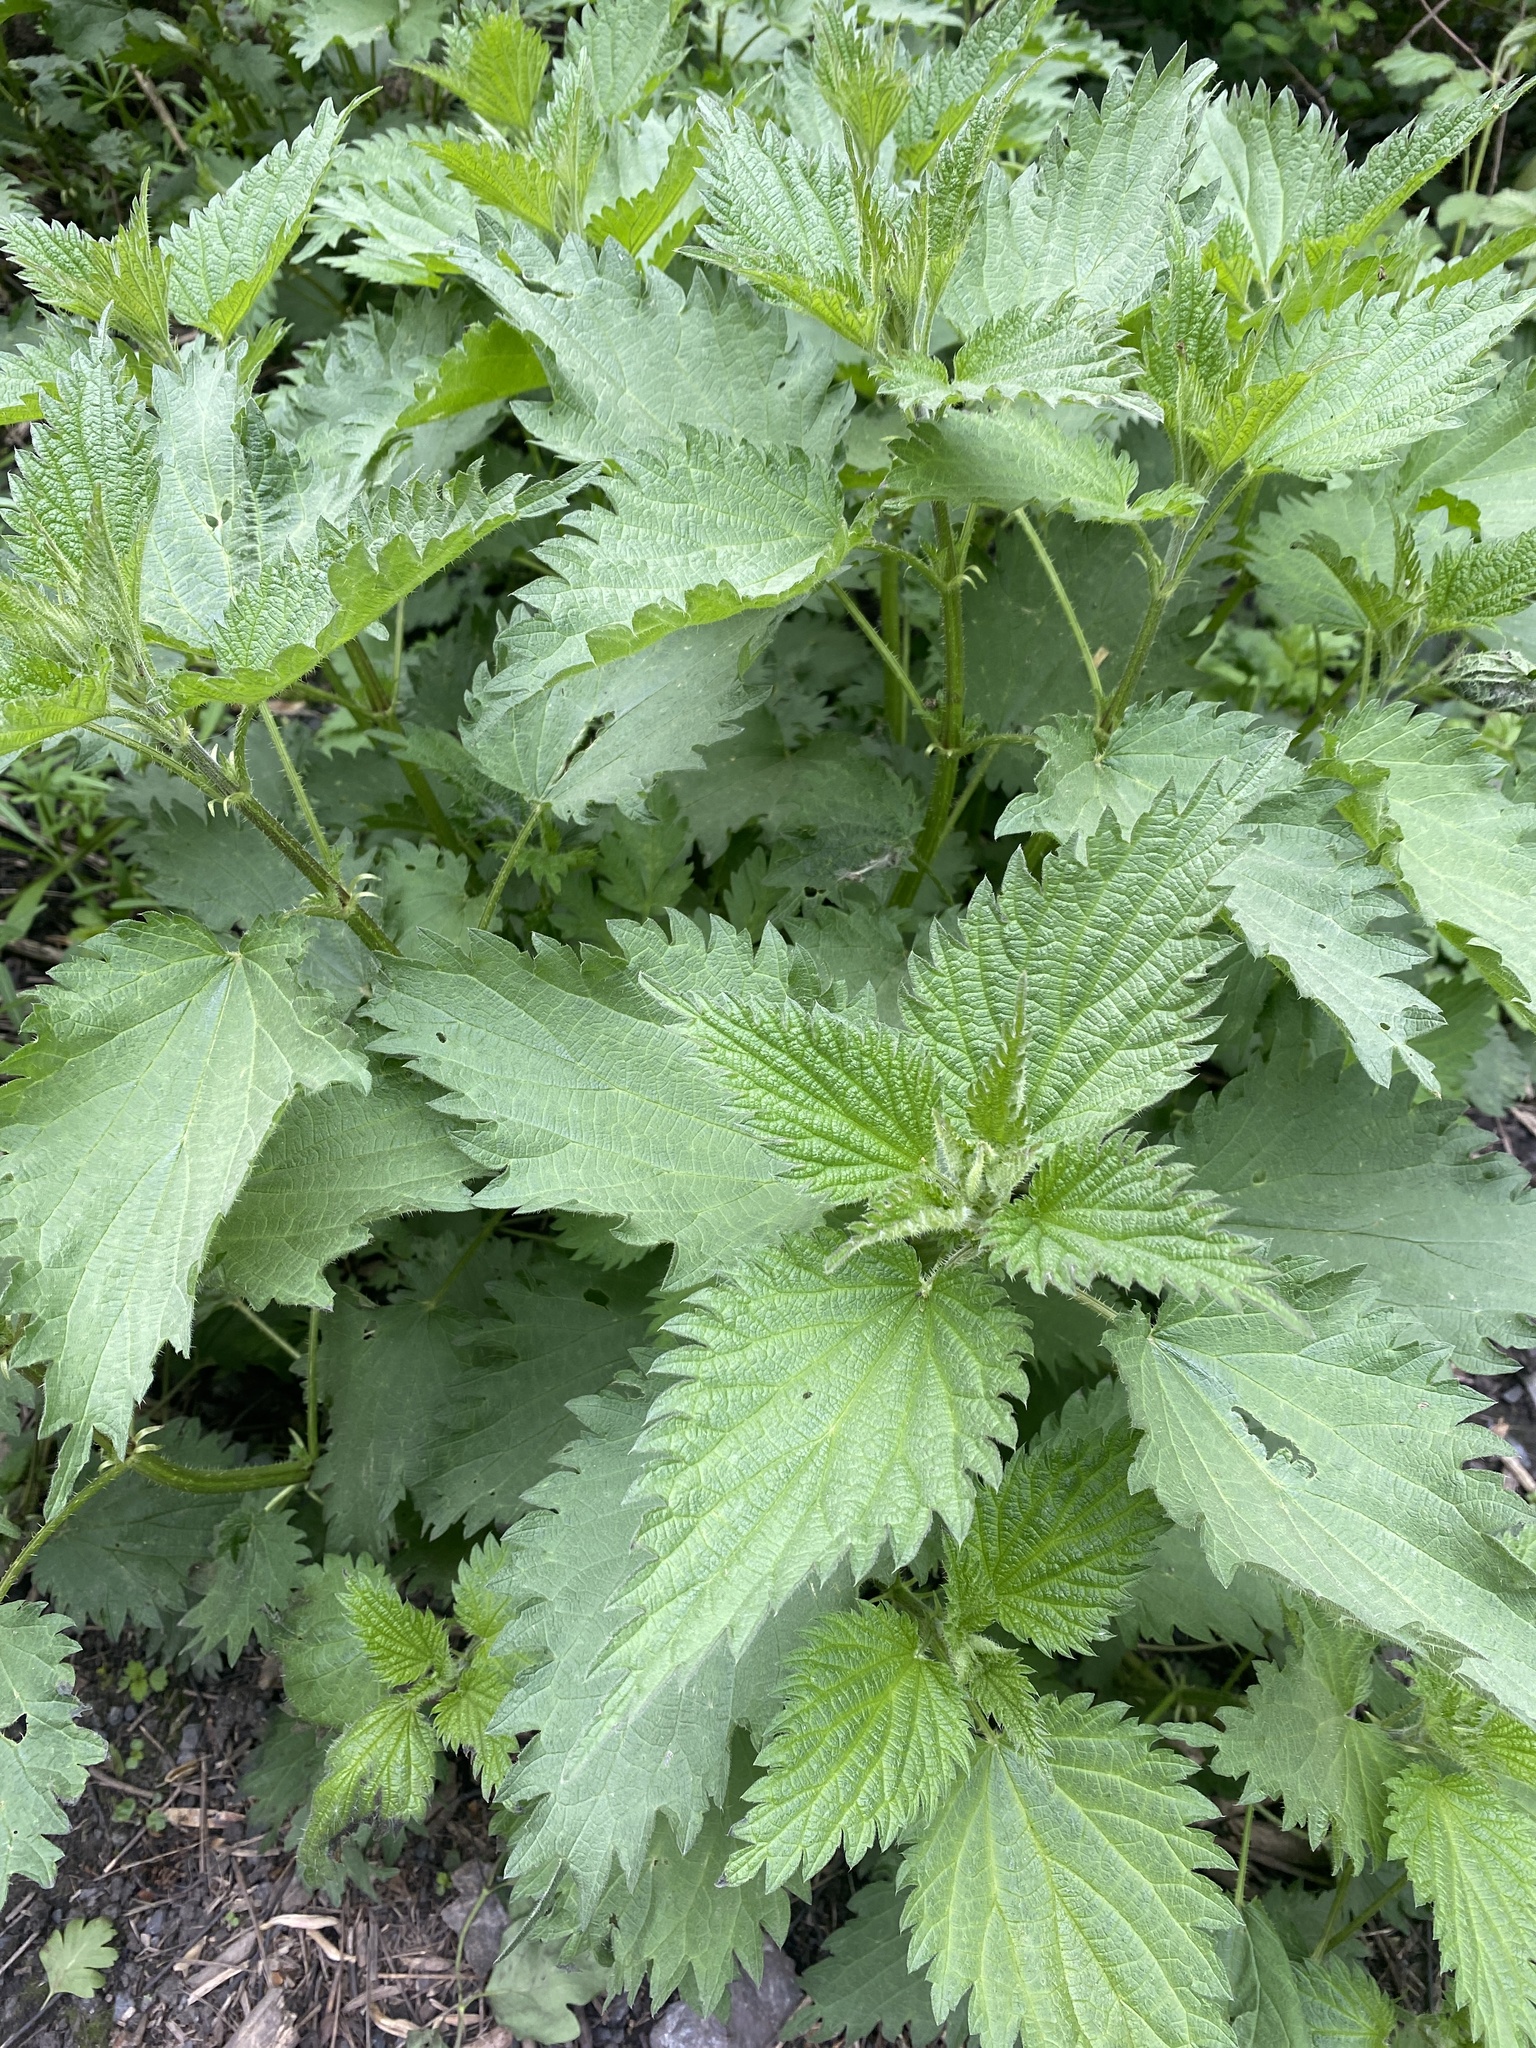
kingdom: Plantae
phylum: Tracheophyta
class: Magnoliopsida
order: Rosales
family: Urticaceae
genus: Urtica
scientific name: Urtica dioica
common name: Common nettle
